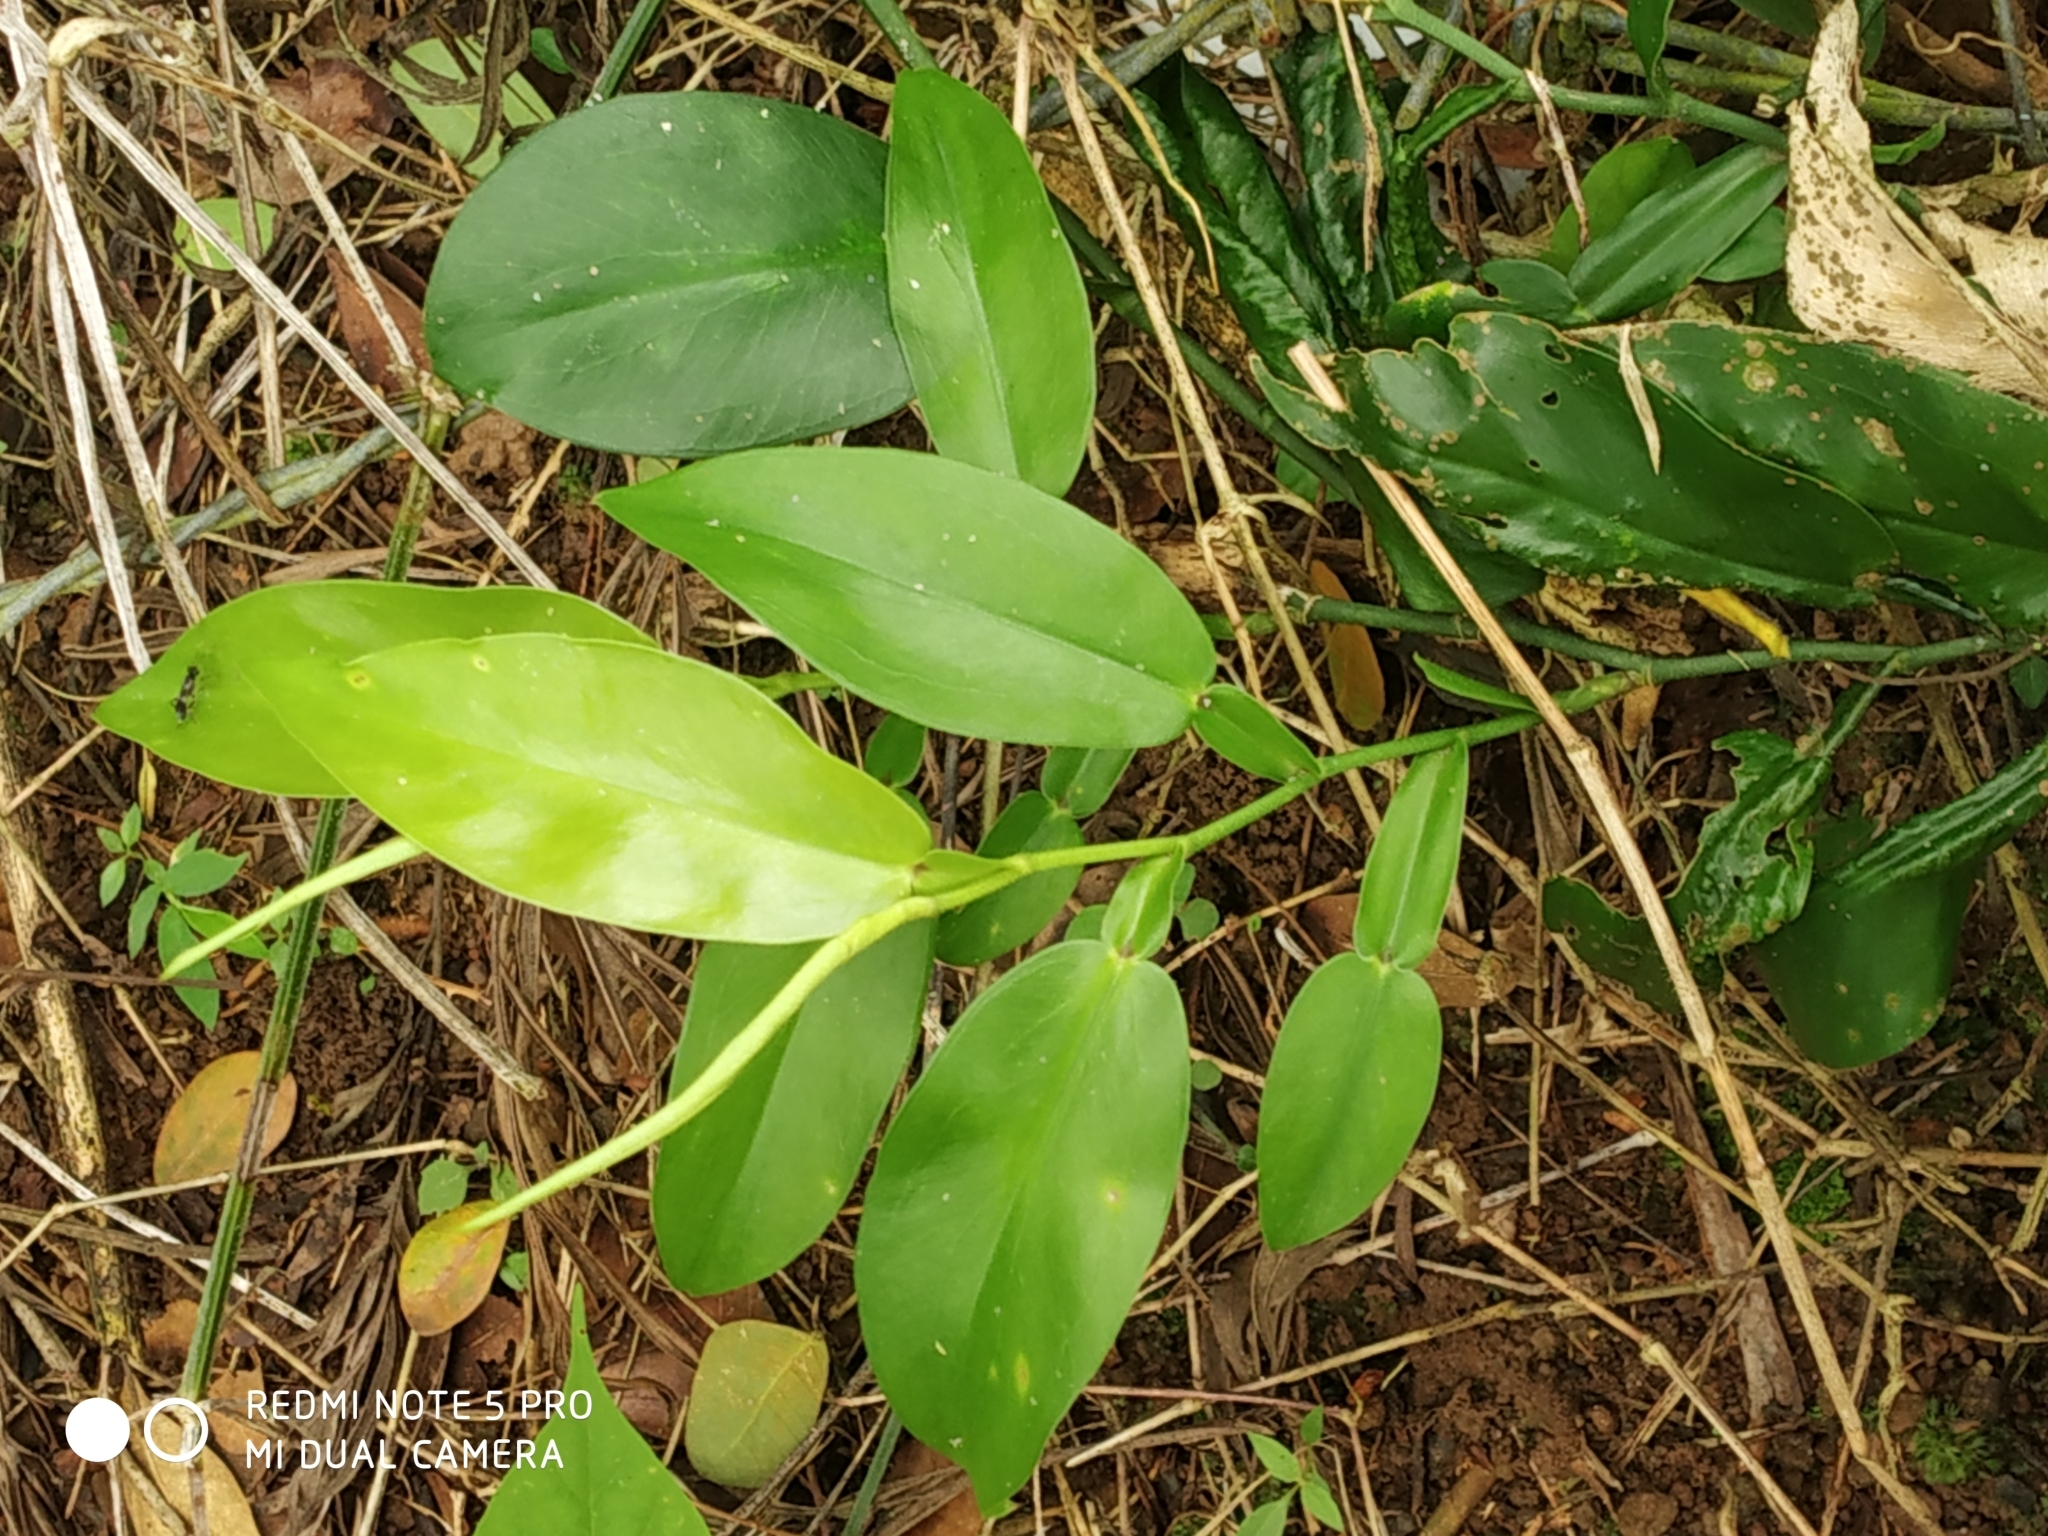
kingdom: Plantae
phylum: Tracheophyta
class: Liliopsida
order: Alismatales
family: Araceae
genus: Pothos
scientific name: Pothos chinensis
